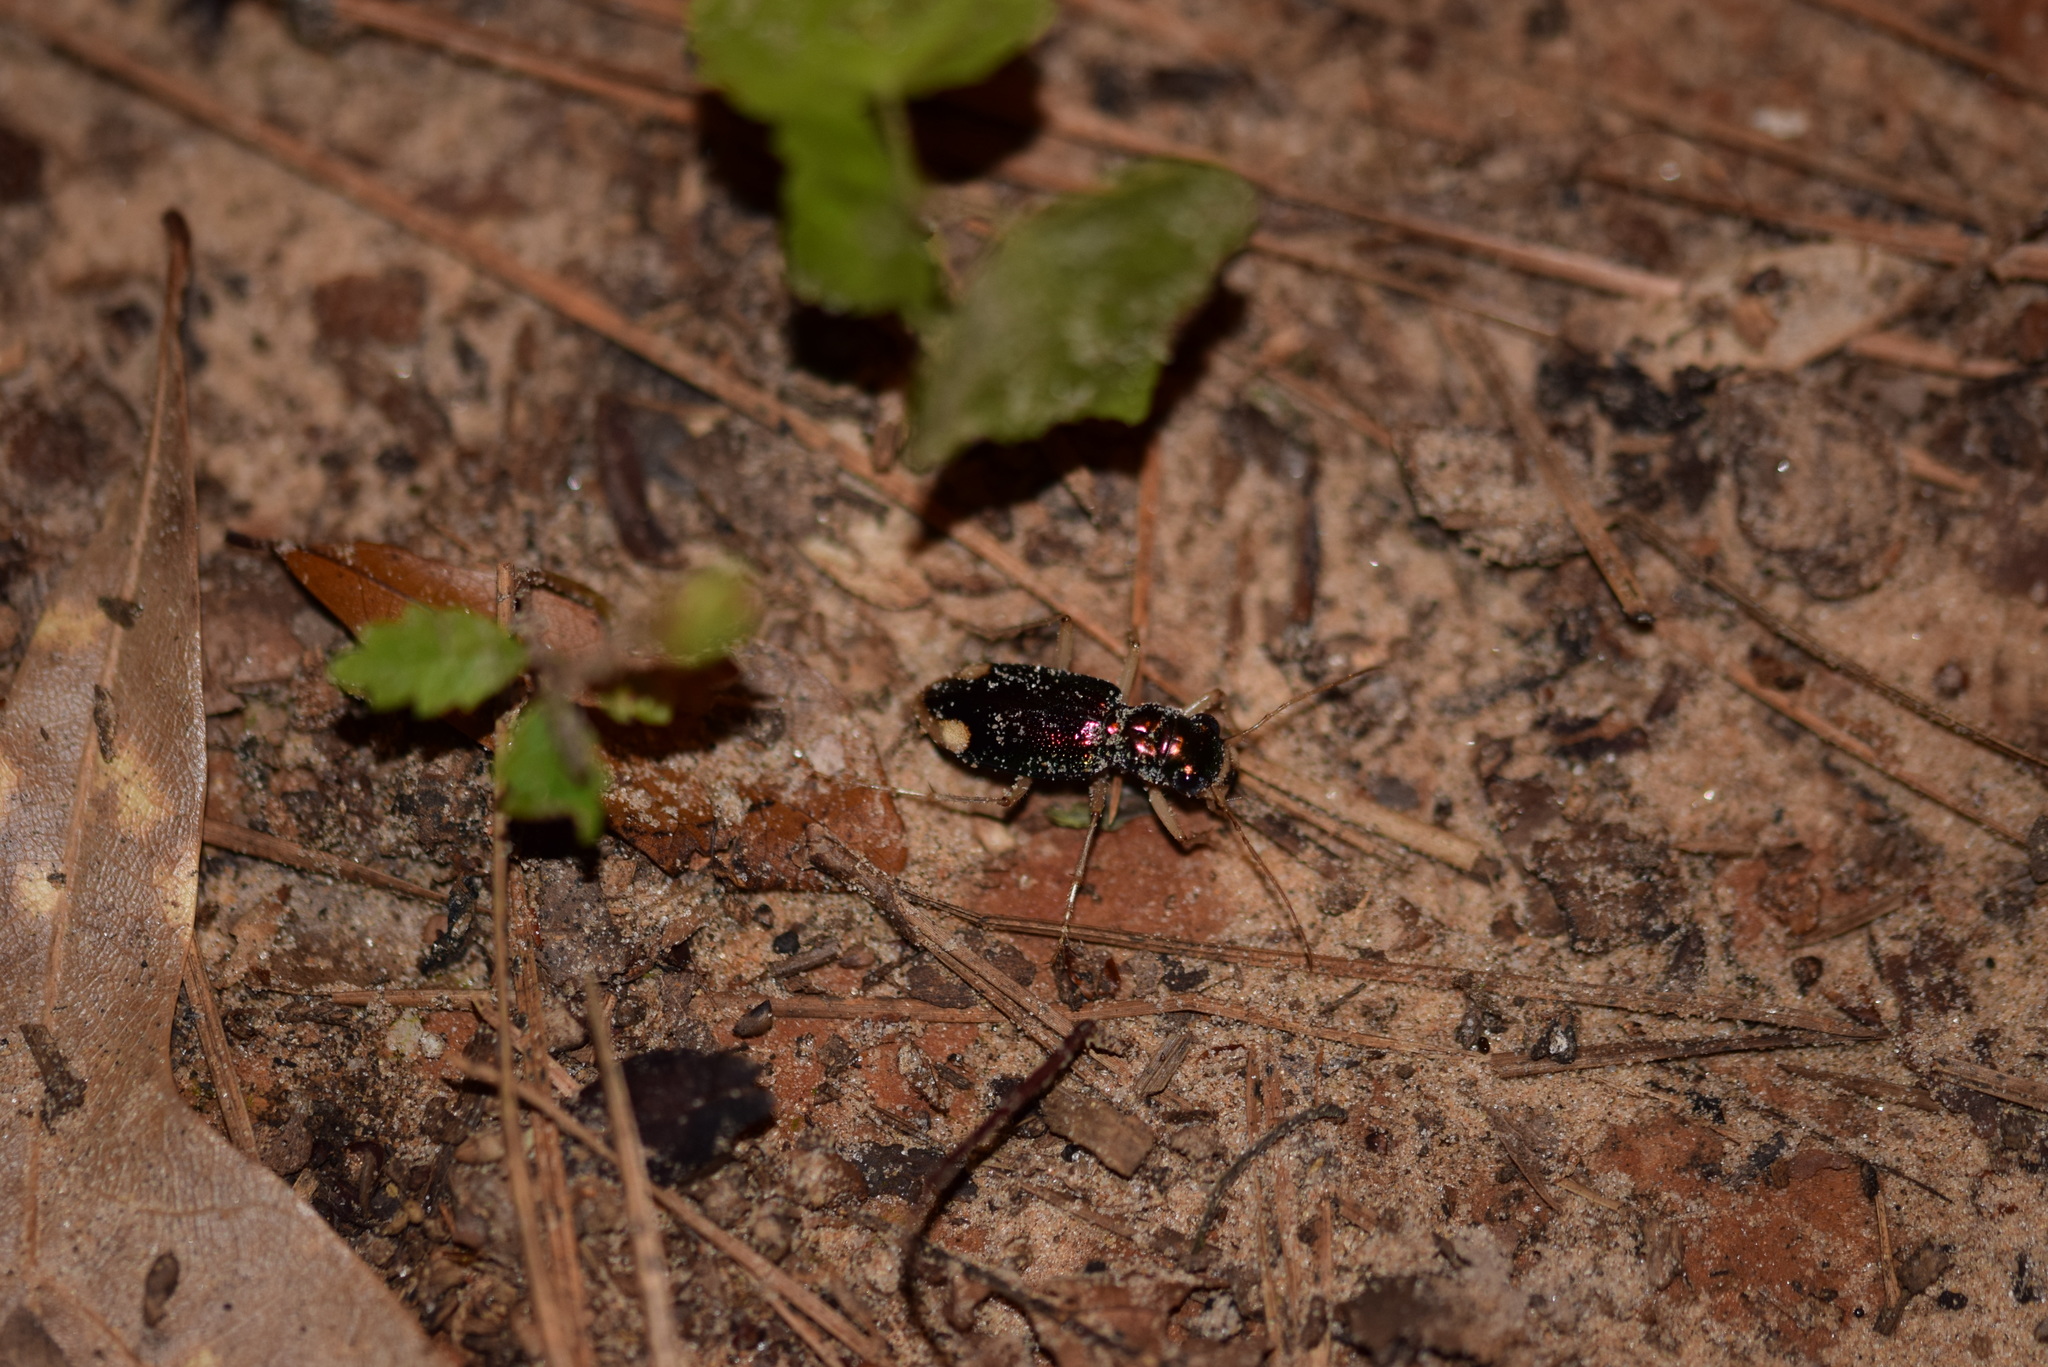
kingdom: Animalia
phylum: Arthropoda
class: Insecta
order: Coleoptera
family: Carabidae
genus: Tetracha
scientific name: Tetracha carolina
